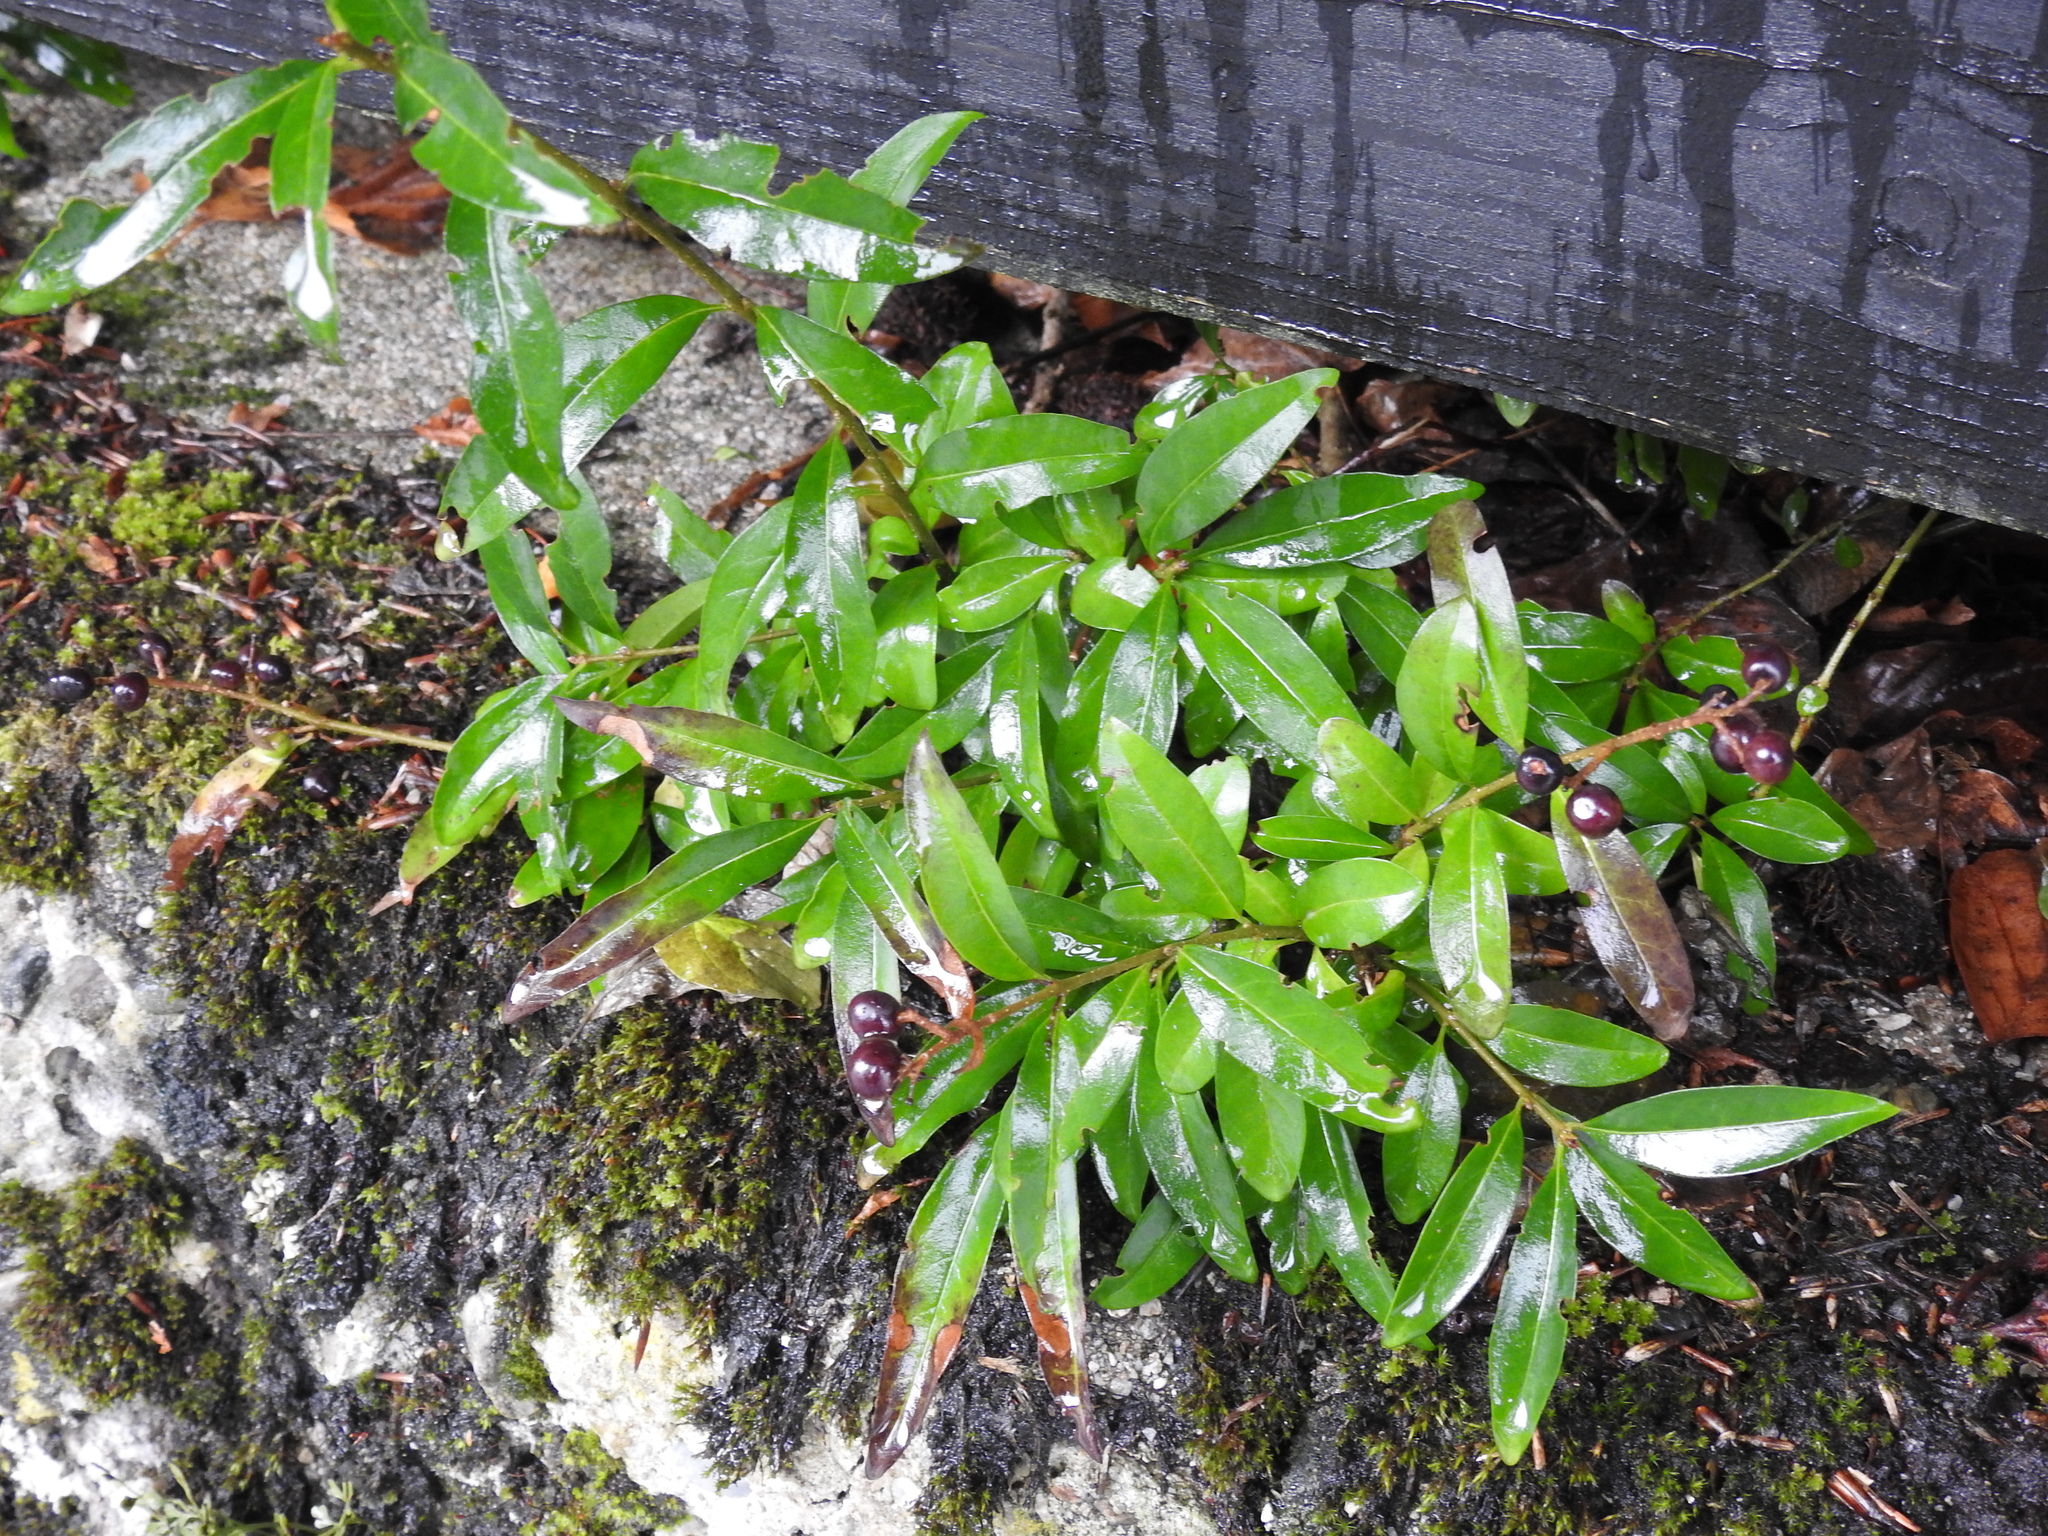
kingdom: Plantae
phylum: Tracheophyta
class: Magnoliopsida
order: Lamiales
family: Oleaceae
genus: Ligustrum
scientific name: Ligustrum vulgare
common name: Wild privet
